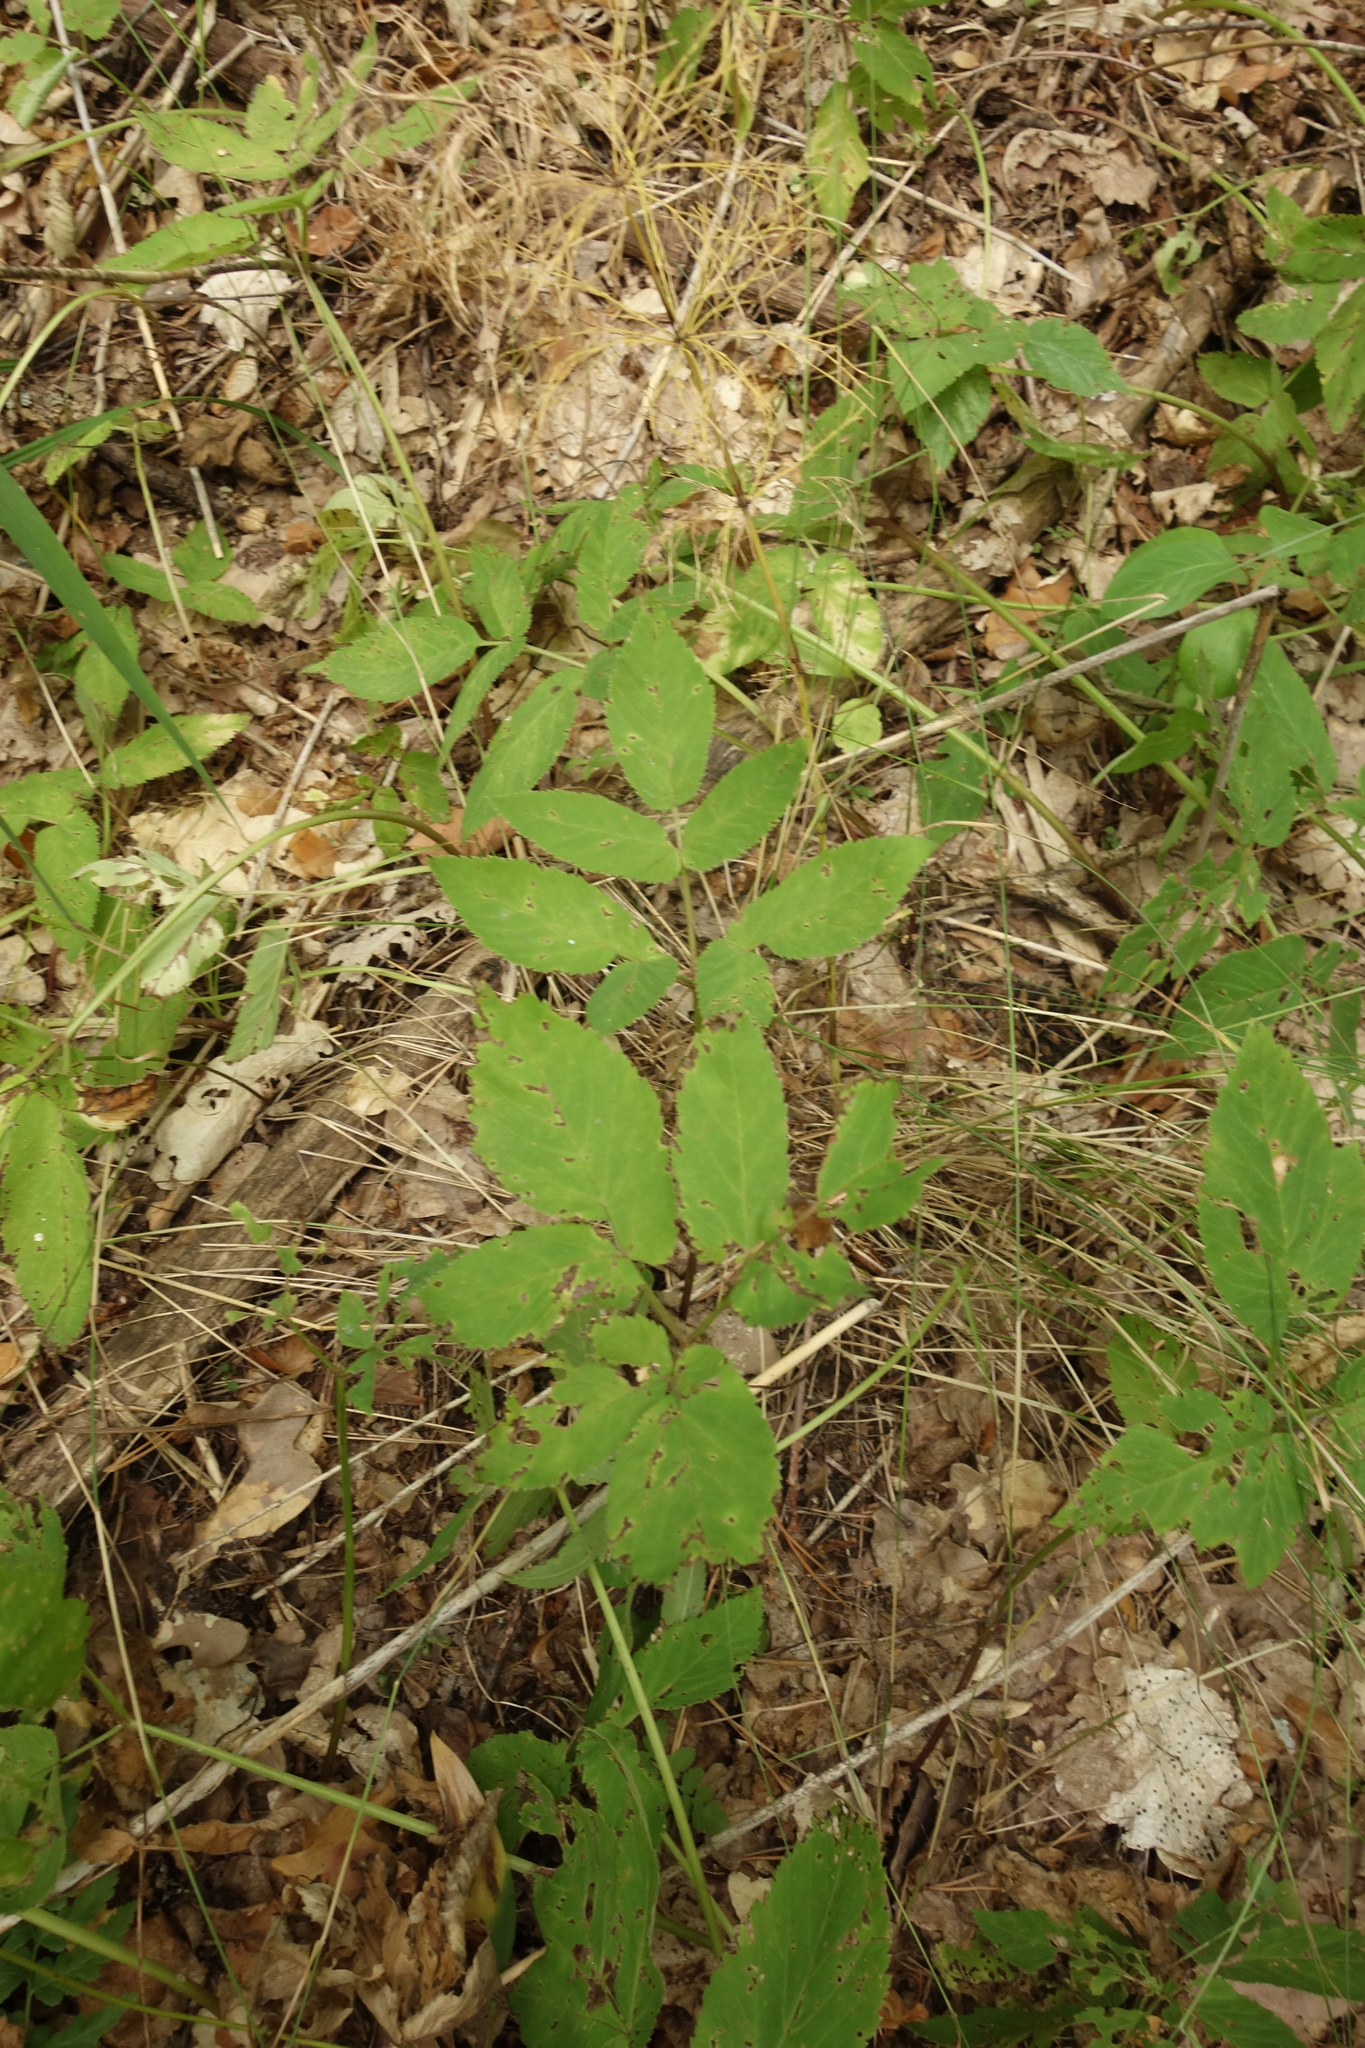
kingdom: Plantae
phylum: Tracheophyta
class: Magnoliopsida
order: Apiales
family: Apiaceae
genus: Aegopodium
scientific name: Aegopodium podagraria
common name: Ground-elder
